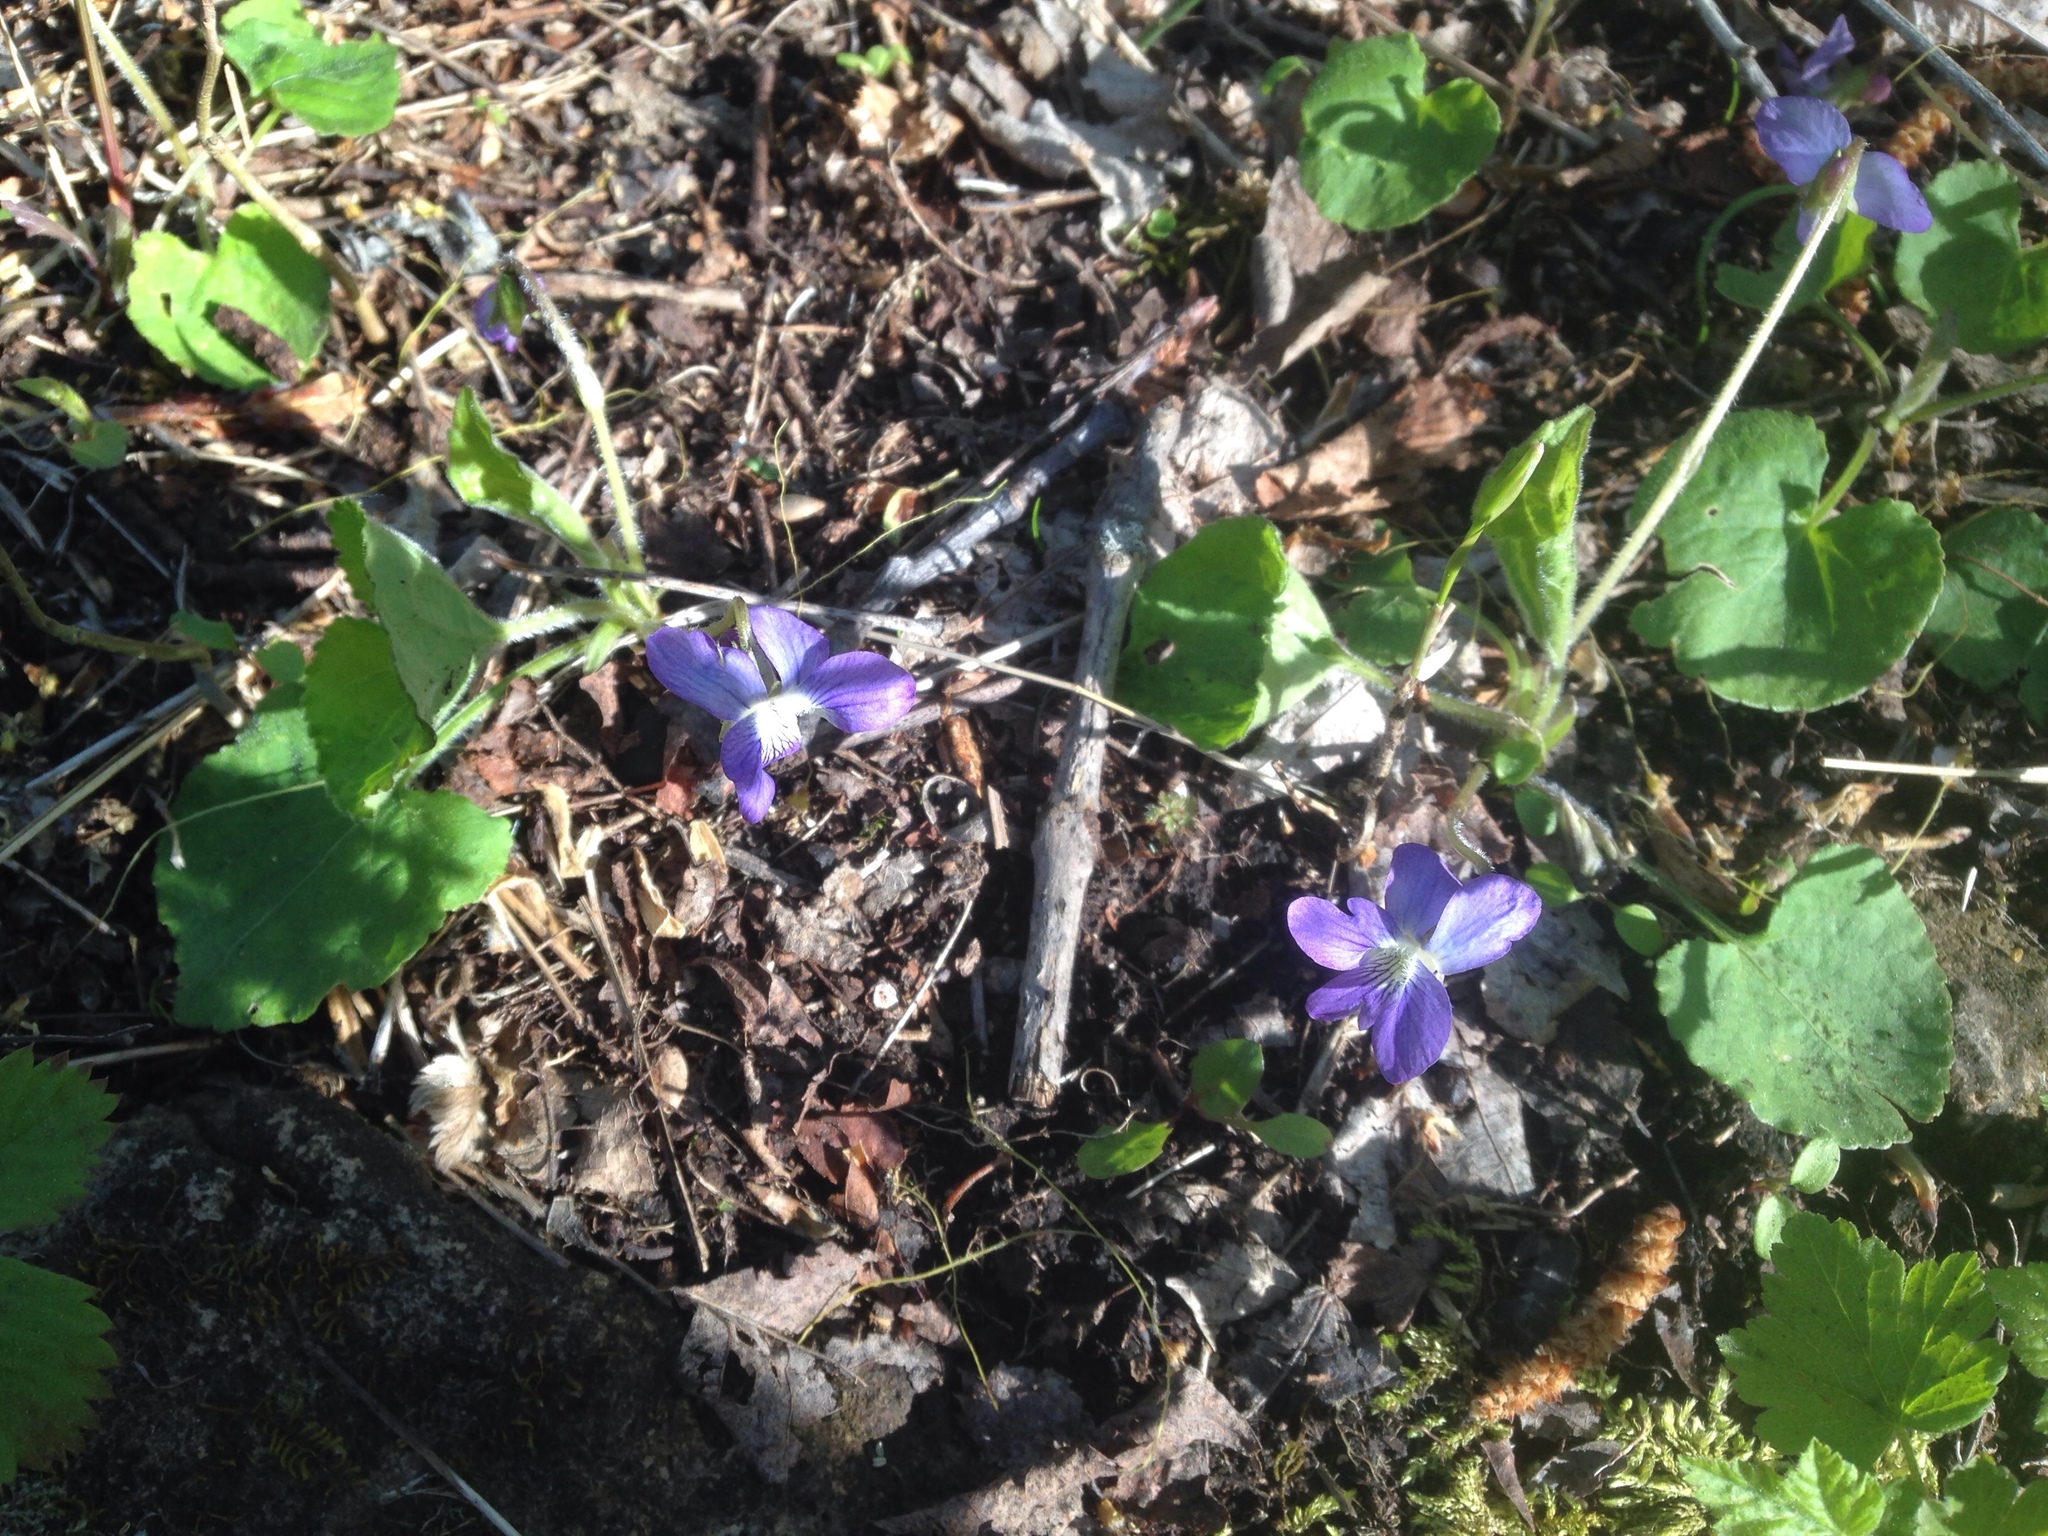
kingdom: Plantae
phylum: Tracheophyta
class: Magnoliopsida
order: Malpighiales
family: Violaceae
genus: Viola
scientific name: Viola sororia
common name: Dooryard violet
